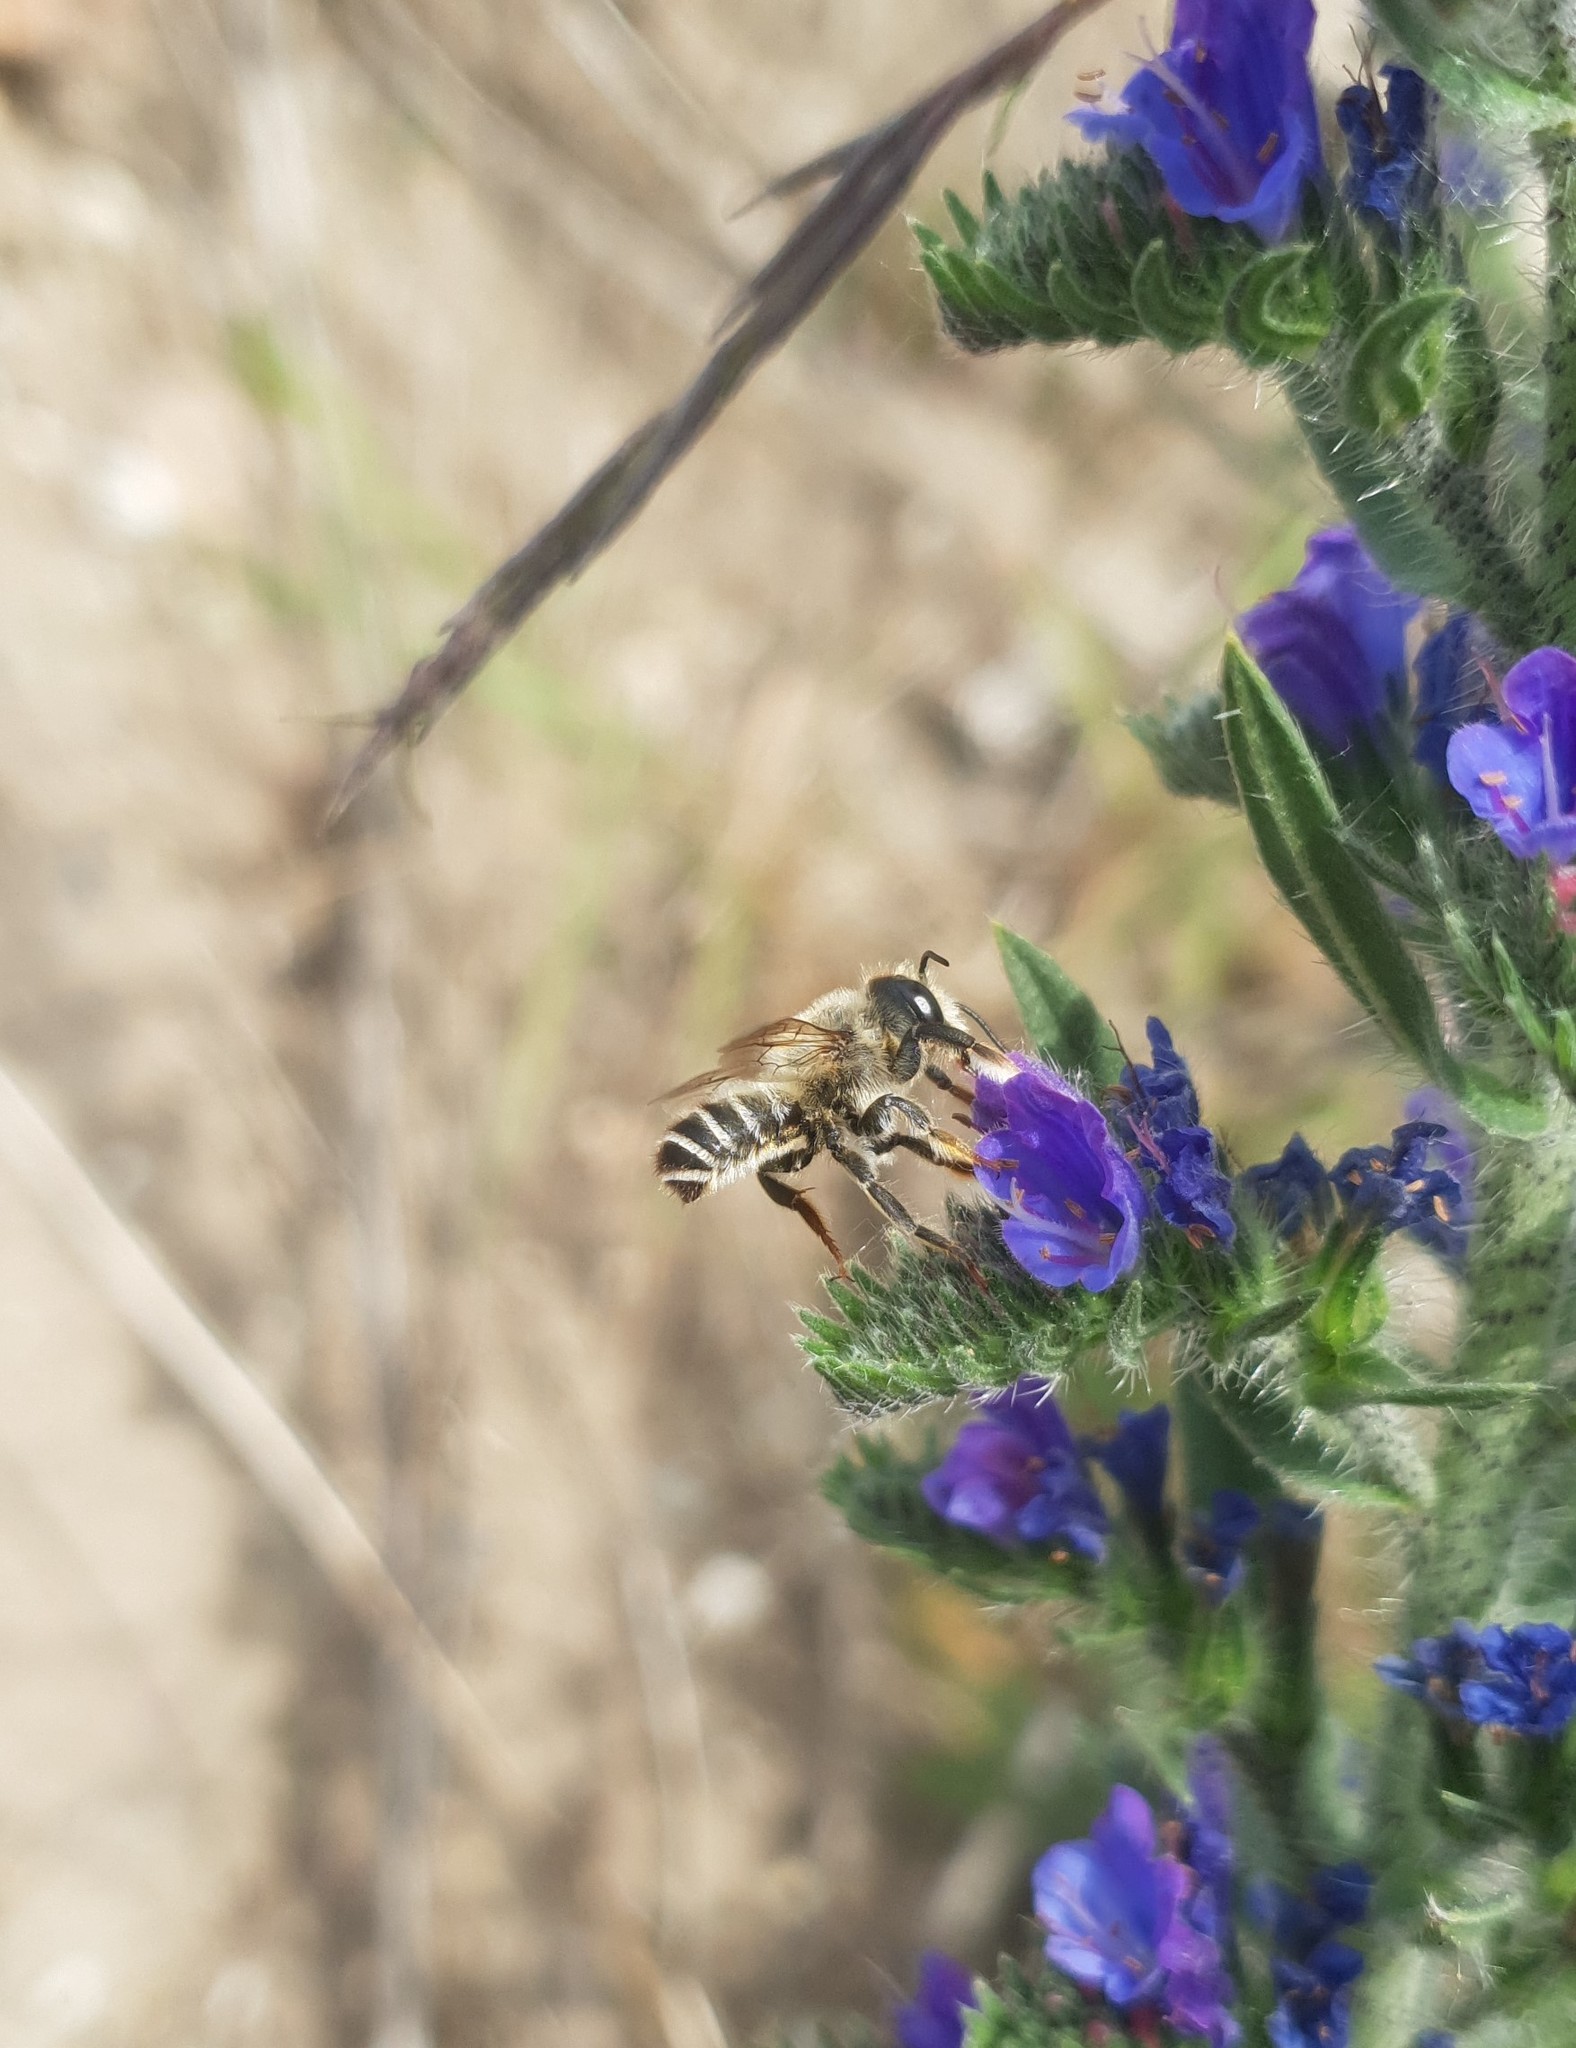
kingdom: Animalia
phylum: Arthropoda
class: Insecta
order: Hymenoptera
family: Megachilidae
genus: Megachile
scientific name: Megachile ericetorum
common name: Leafcutter bee
